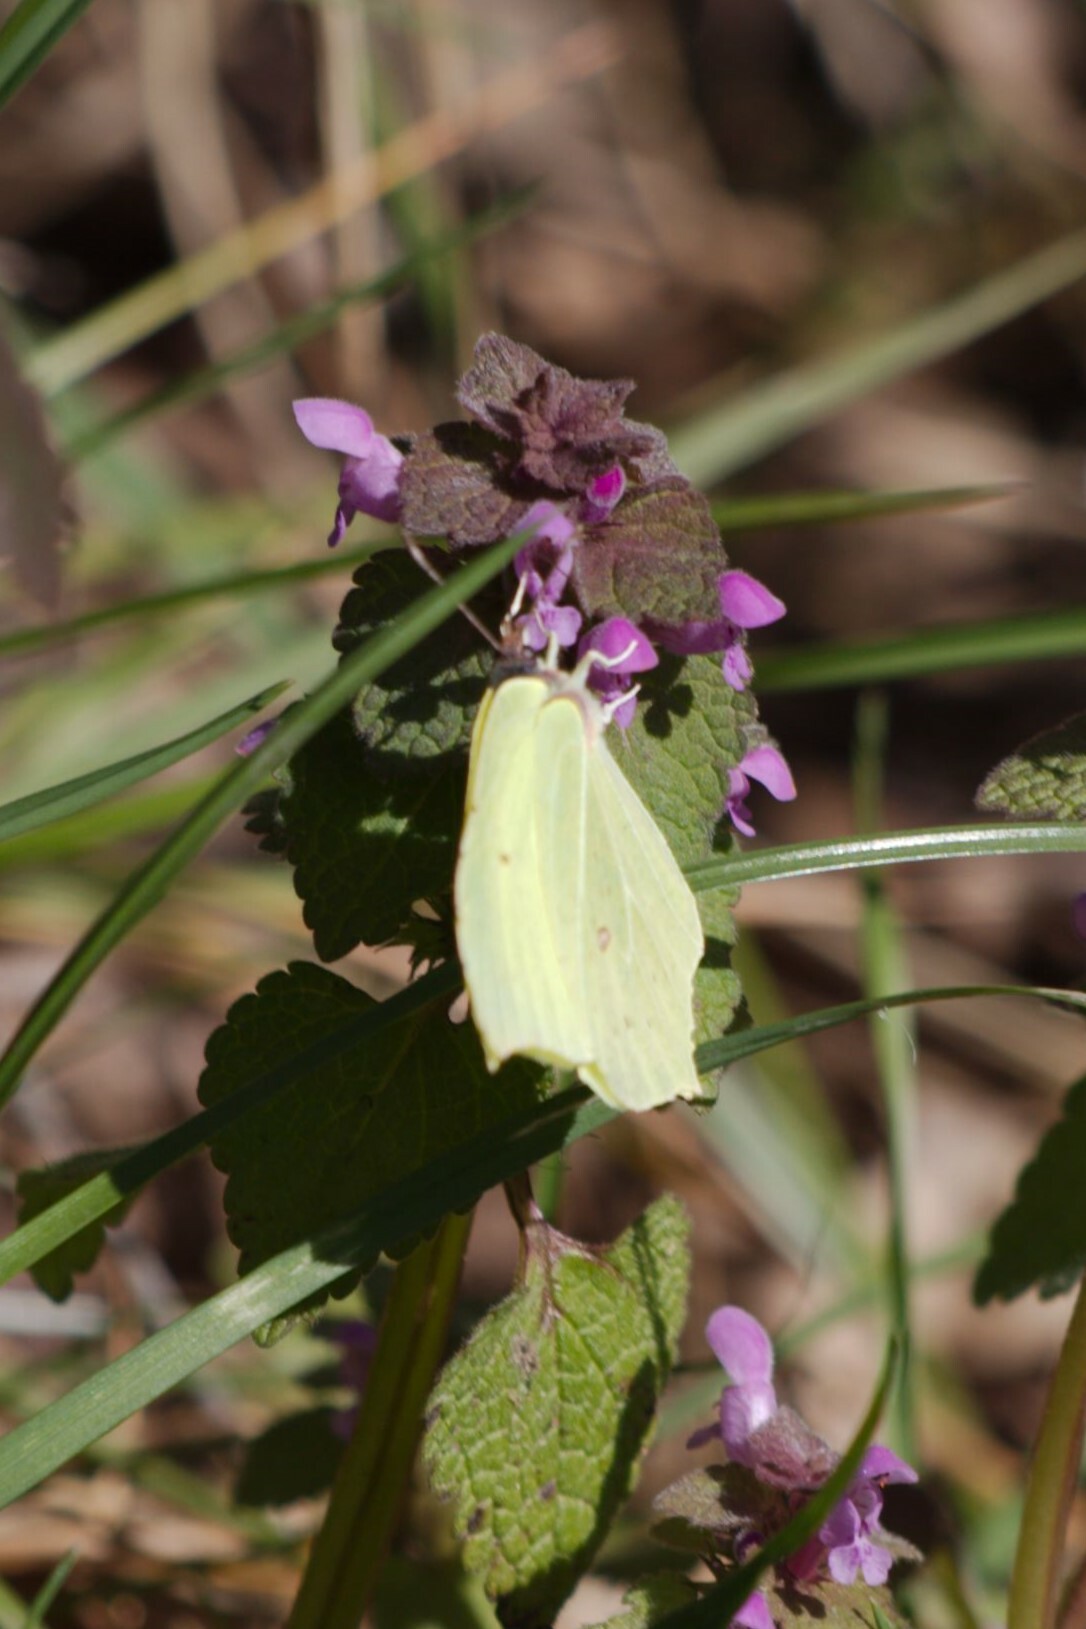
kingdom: Animalia
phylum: Arthropoda
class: Insecta
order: Lepidoptera
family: Pieridae
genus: Gonepteryx
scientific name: Gonepteryx rhamni
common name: Brimstone
